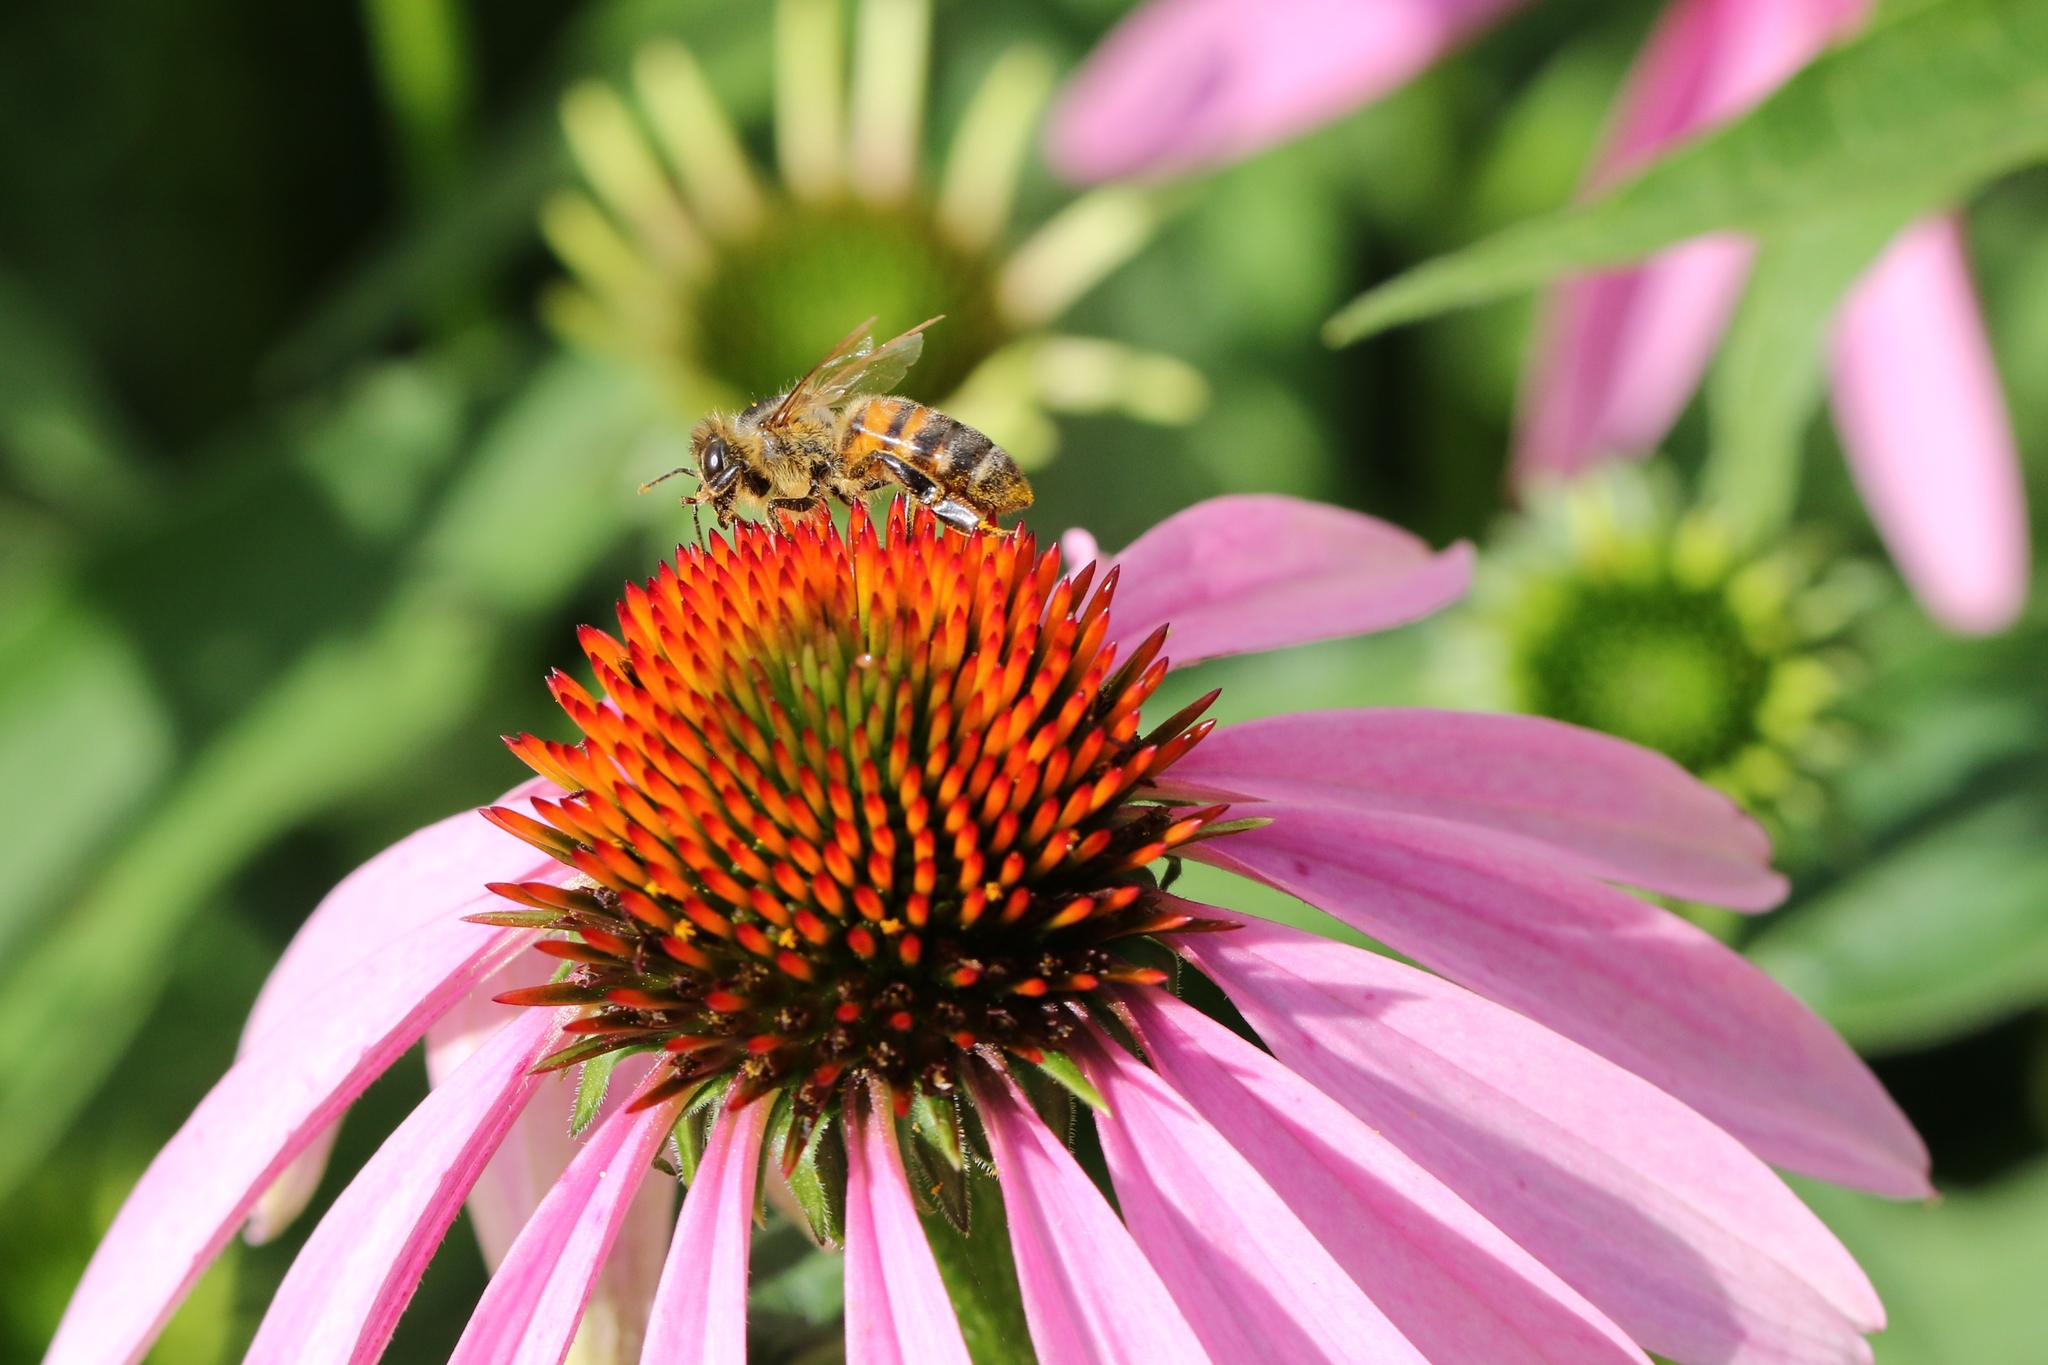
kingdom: Animalia
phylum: Arthropoda
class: Insecta
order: Hymenoptera
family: Apidae
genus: Apis
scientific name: Apis mellifera
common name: Honey bee
